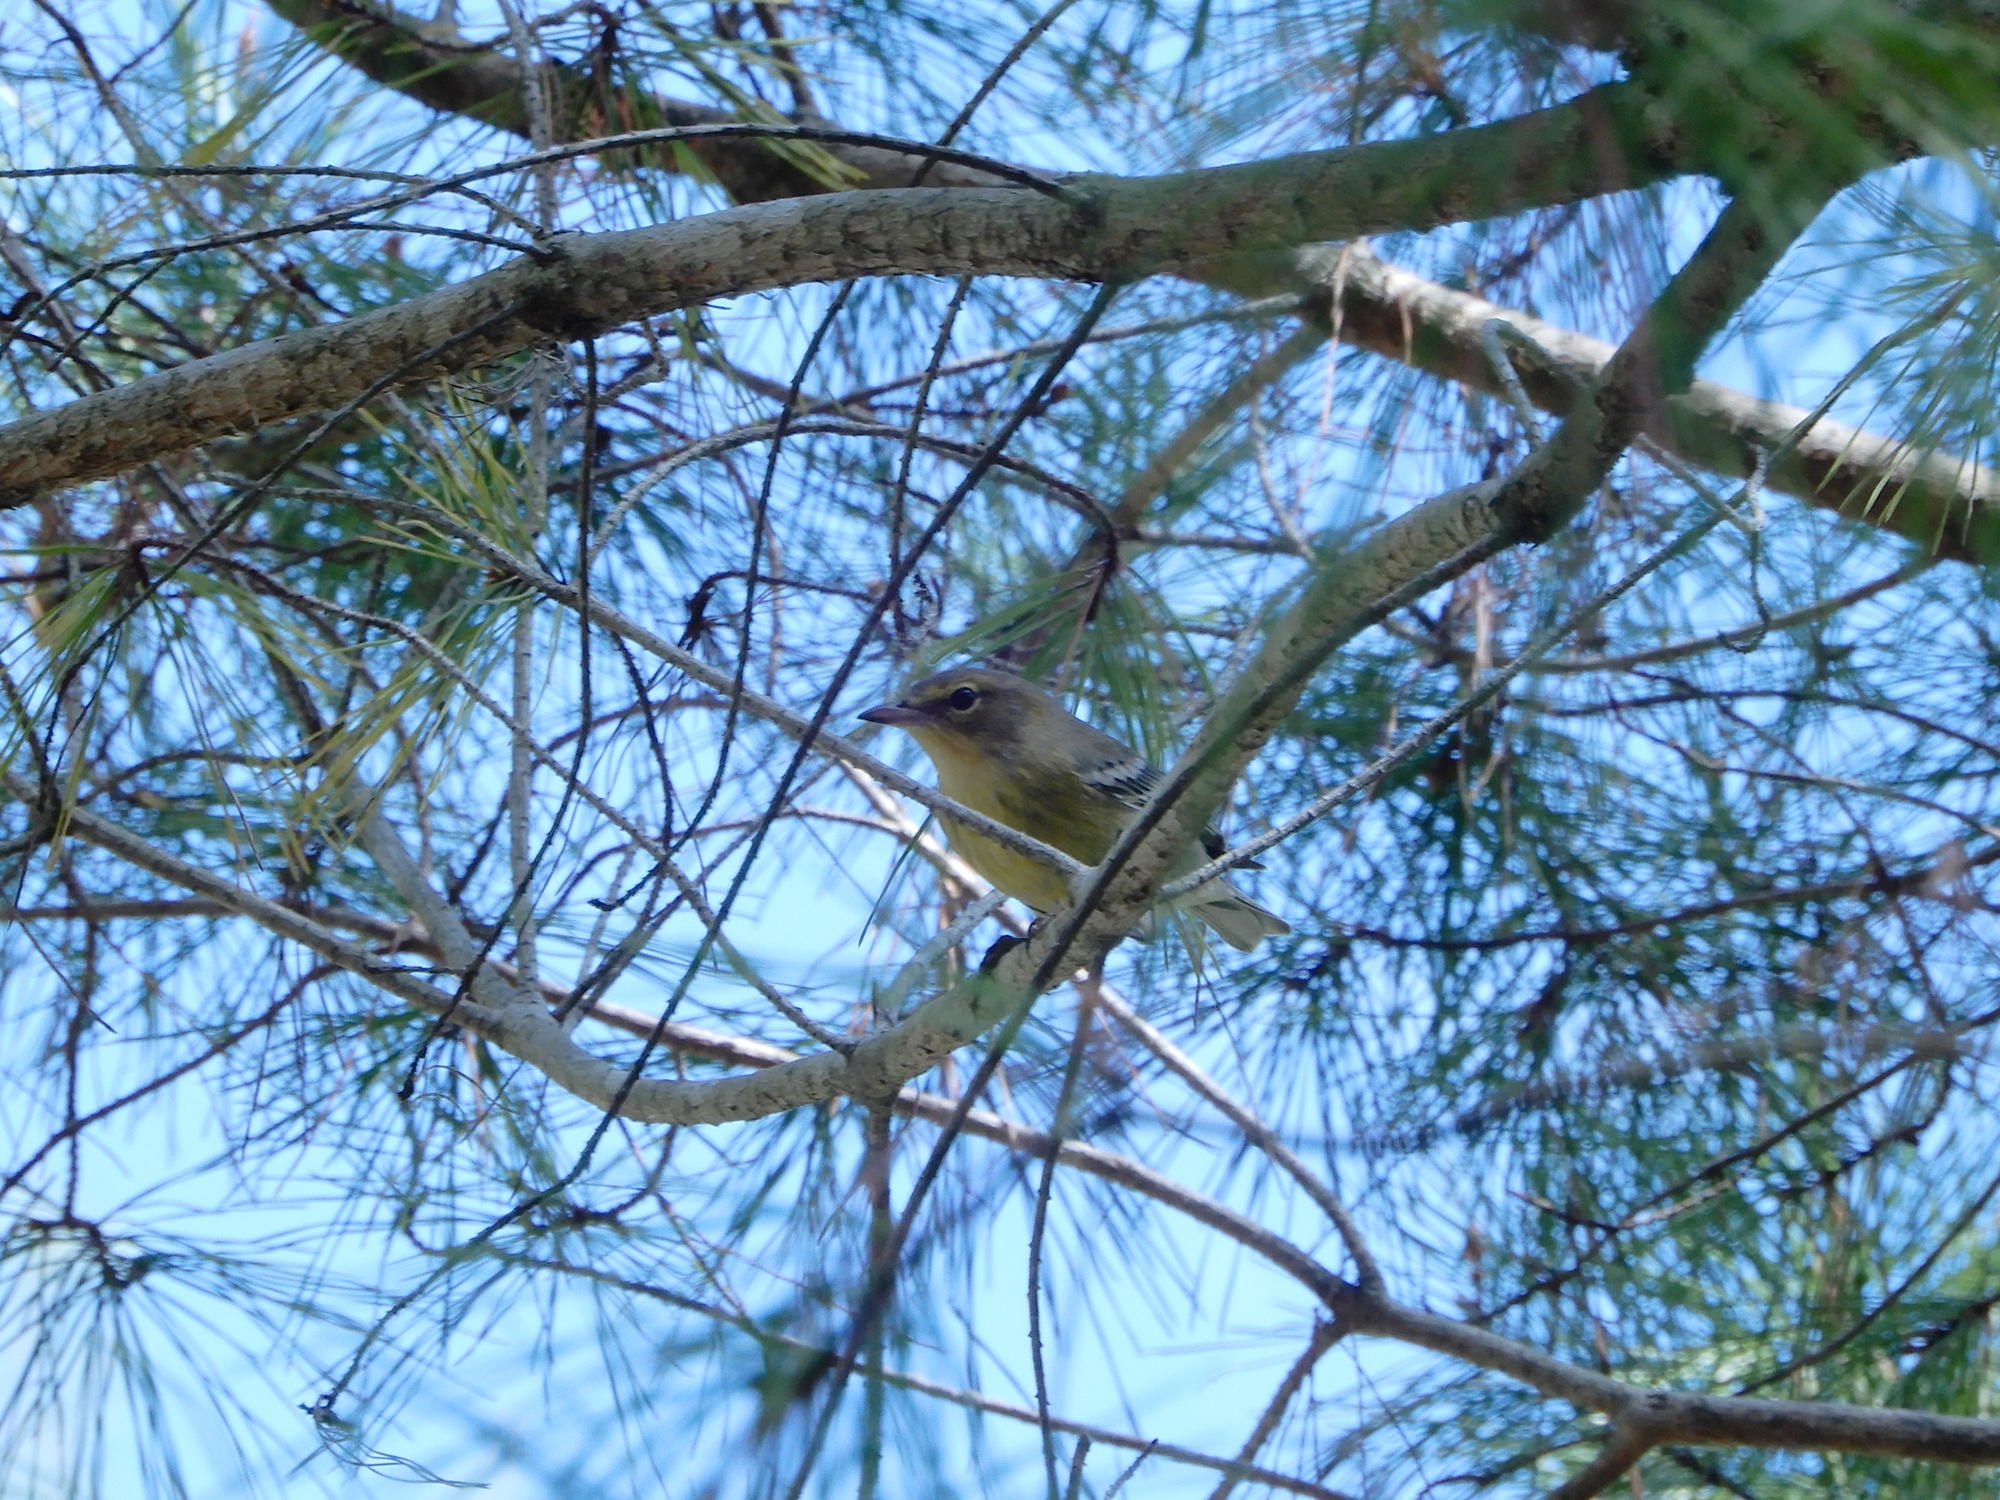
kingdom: Animalia
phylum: Chordata
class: Aves
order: Passeriformes
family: Parulidae
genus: Setophaga
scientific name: Setophaga pinus
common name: Pine warbler
